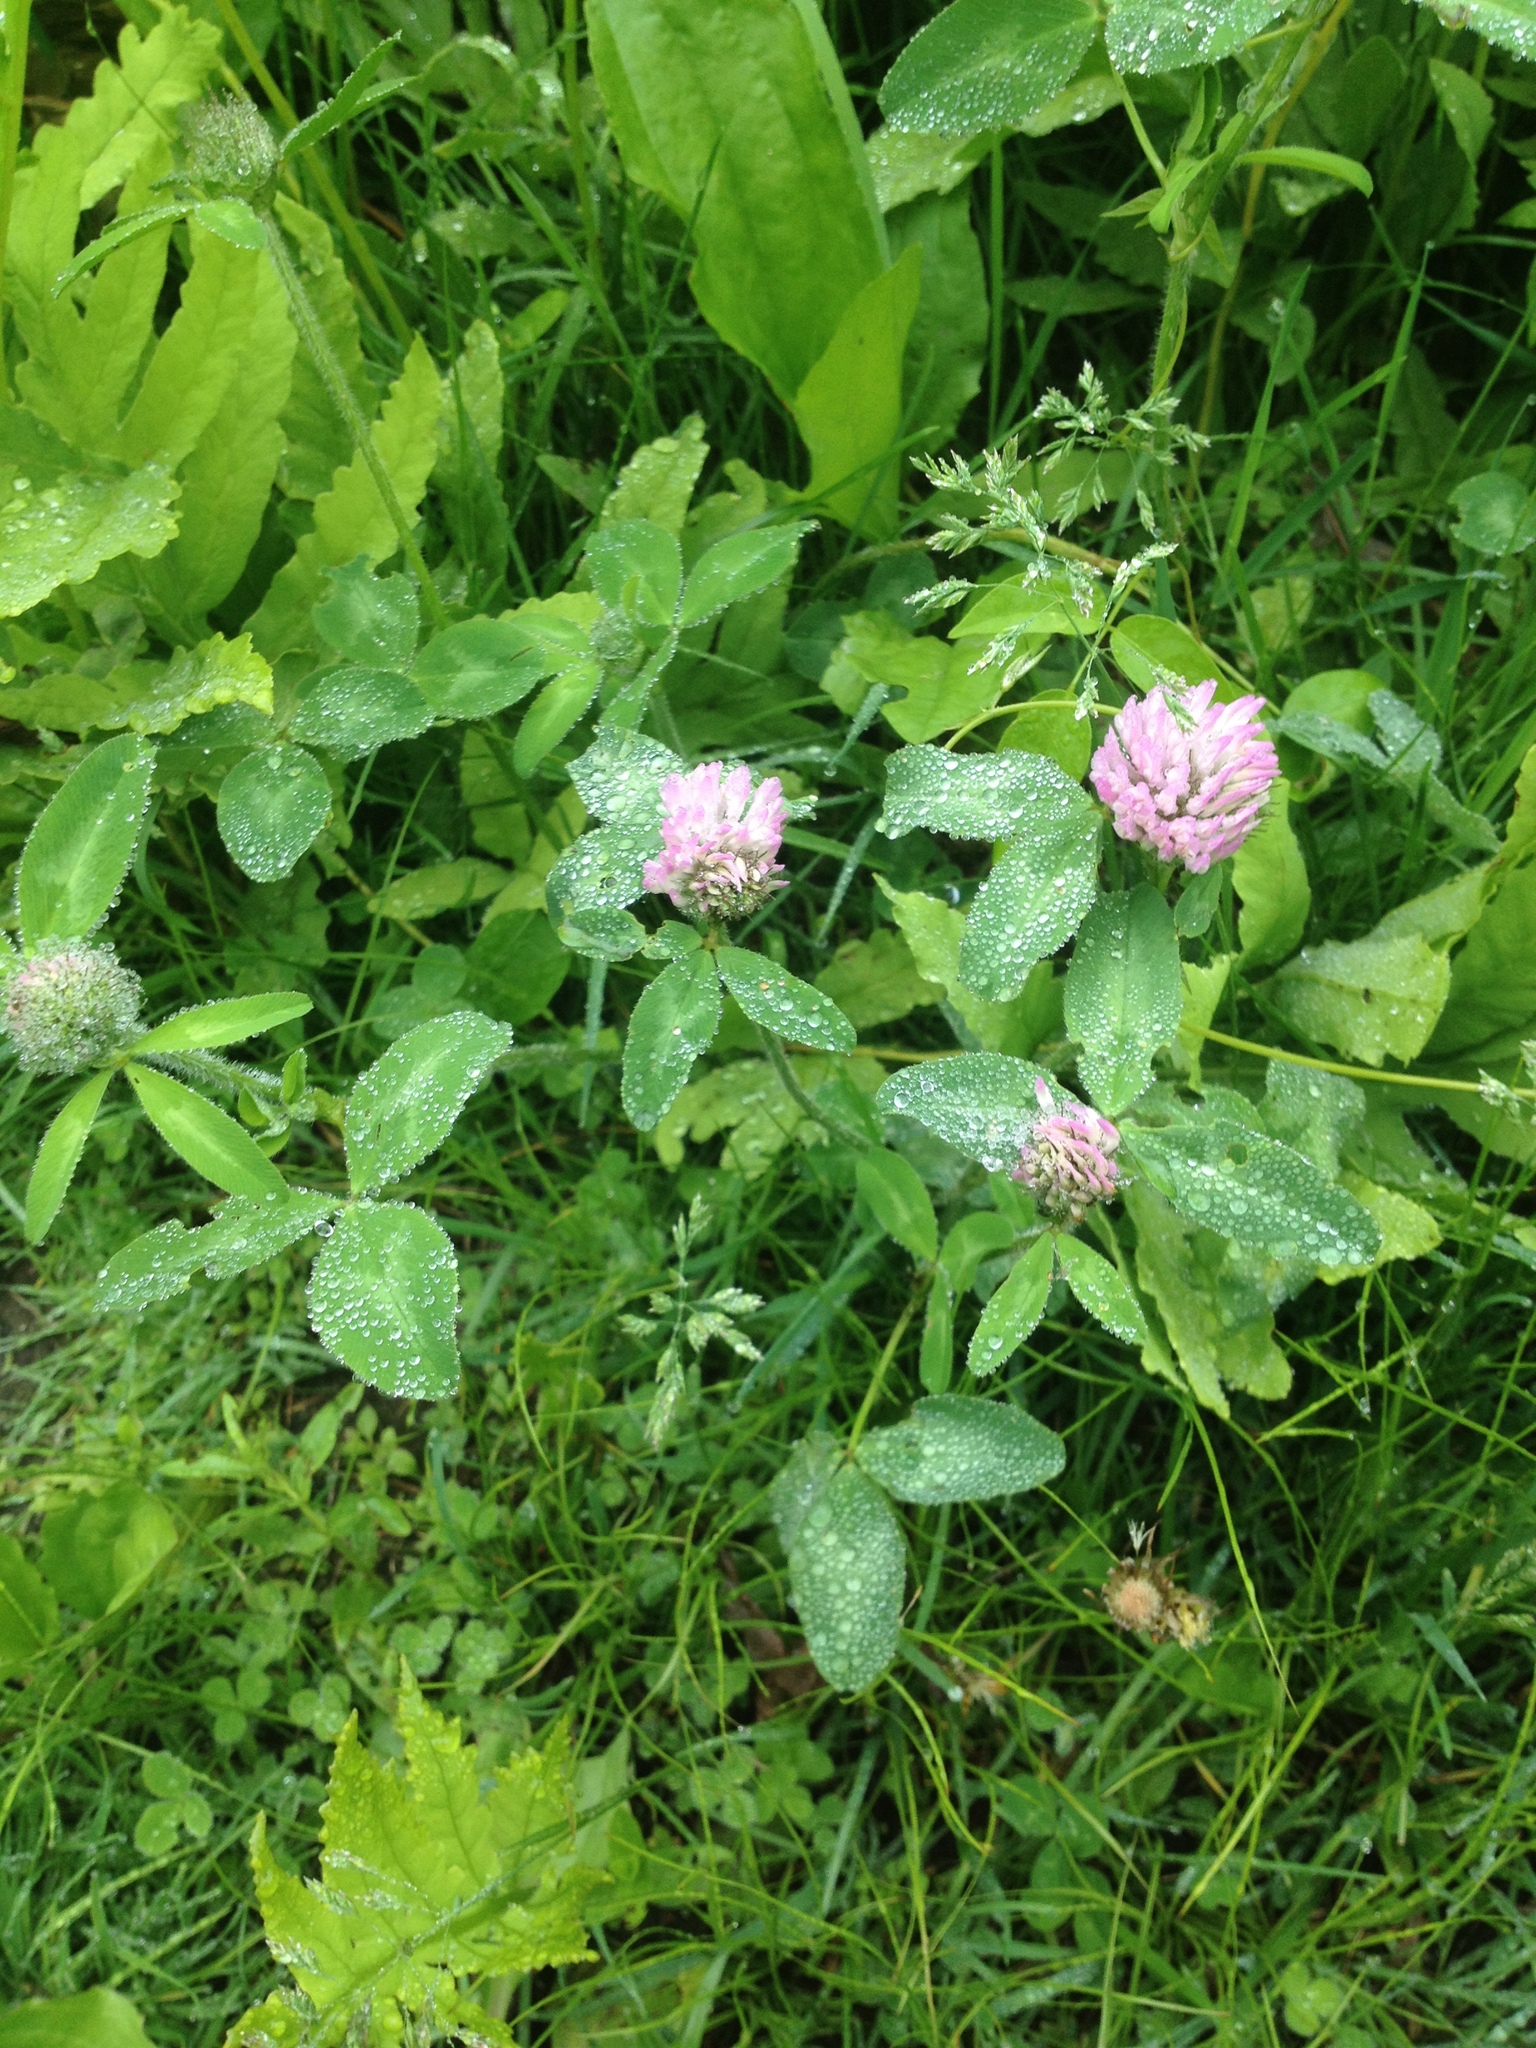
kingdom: Plantae
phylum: Tracheophyta
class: Magnoliopsida
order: Fabales
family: Fabaceae
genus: Trifolium
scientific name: Trifolium pratense
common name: Red clover
